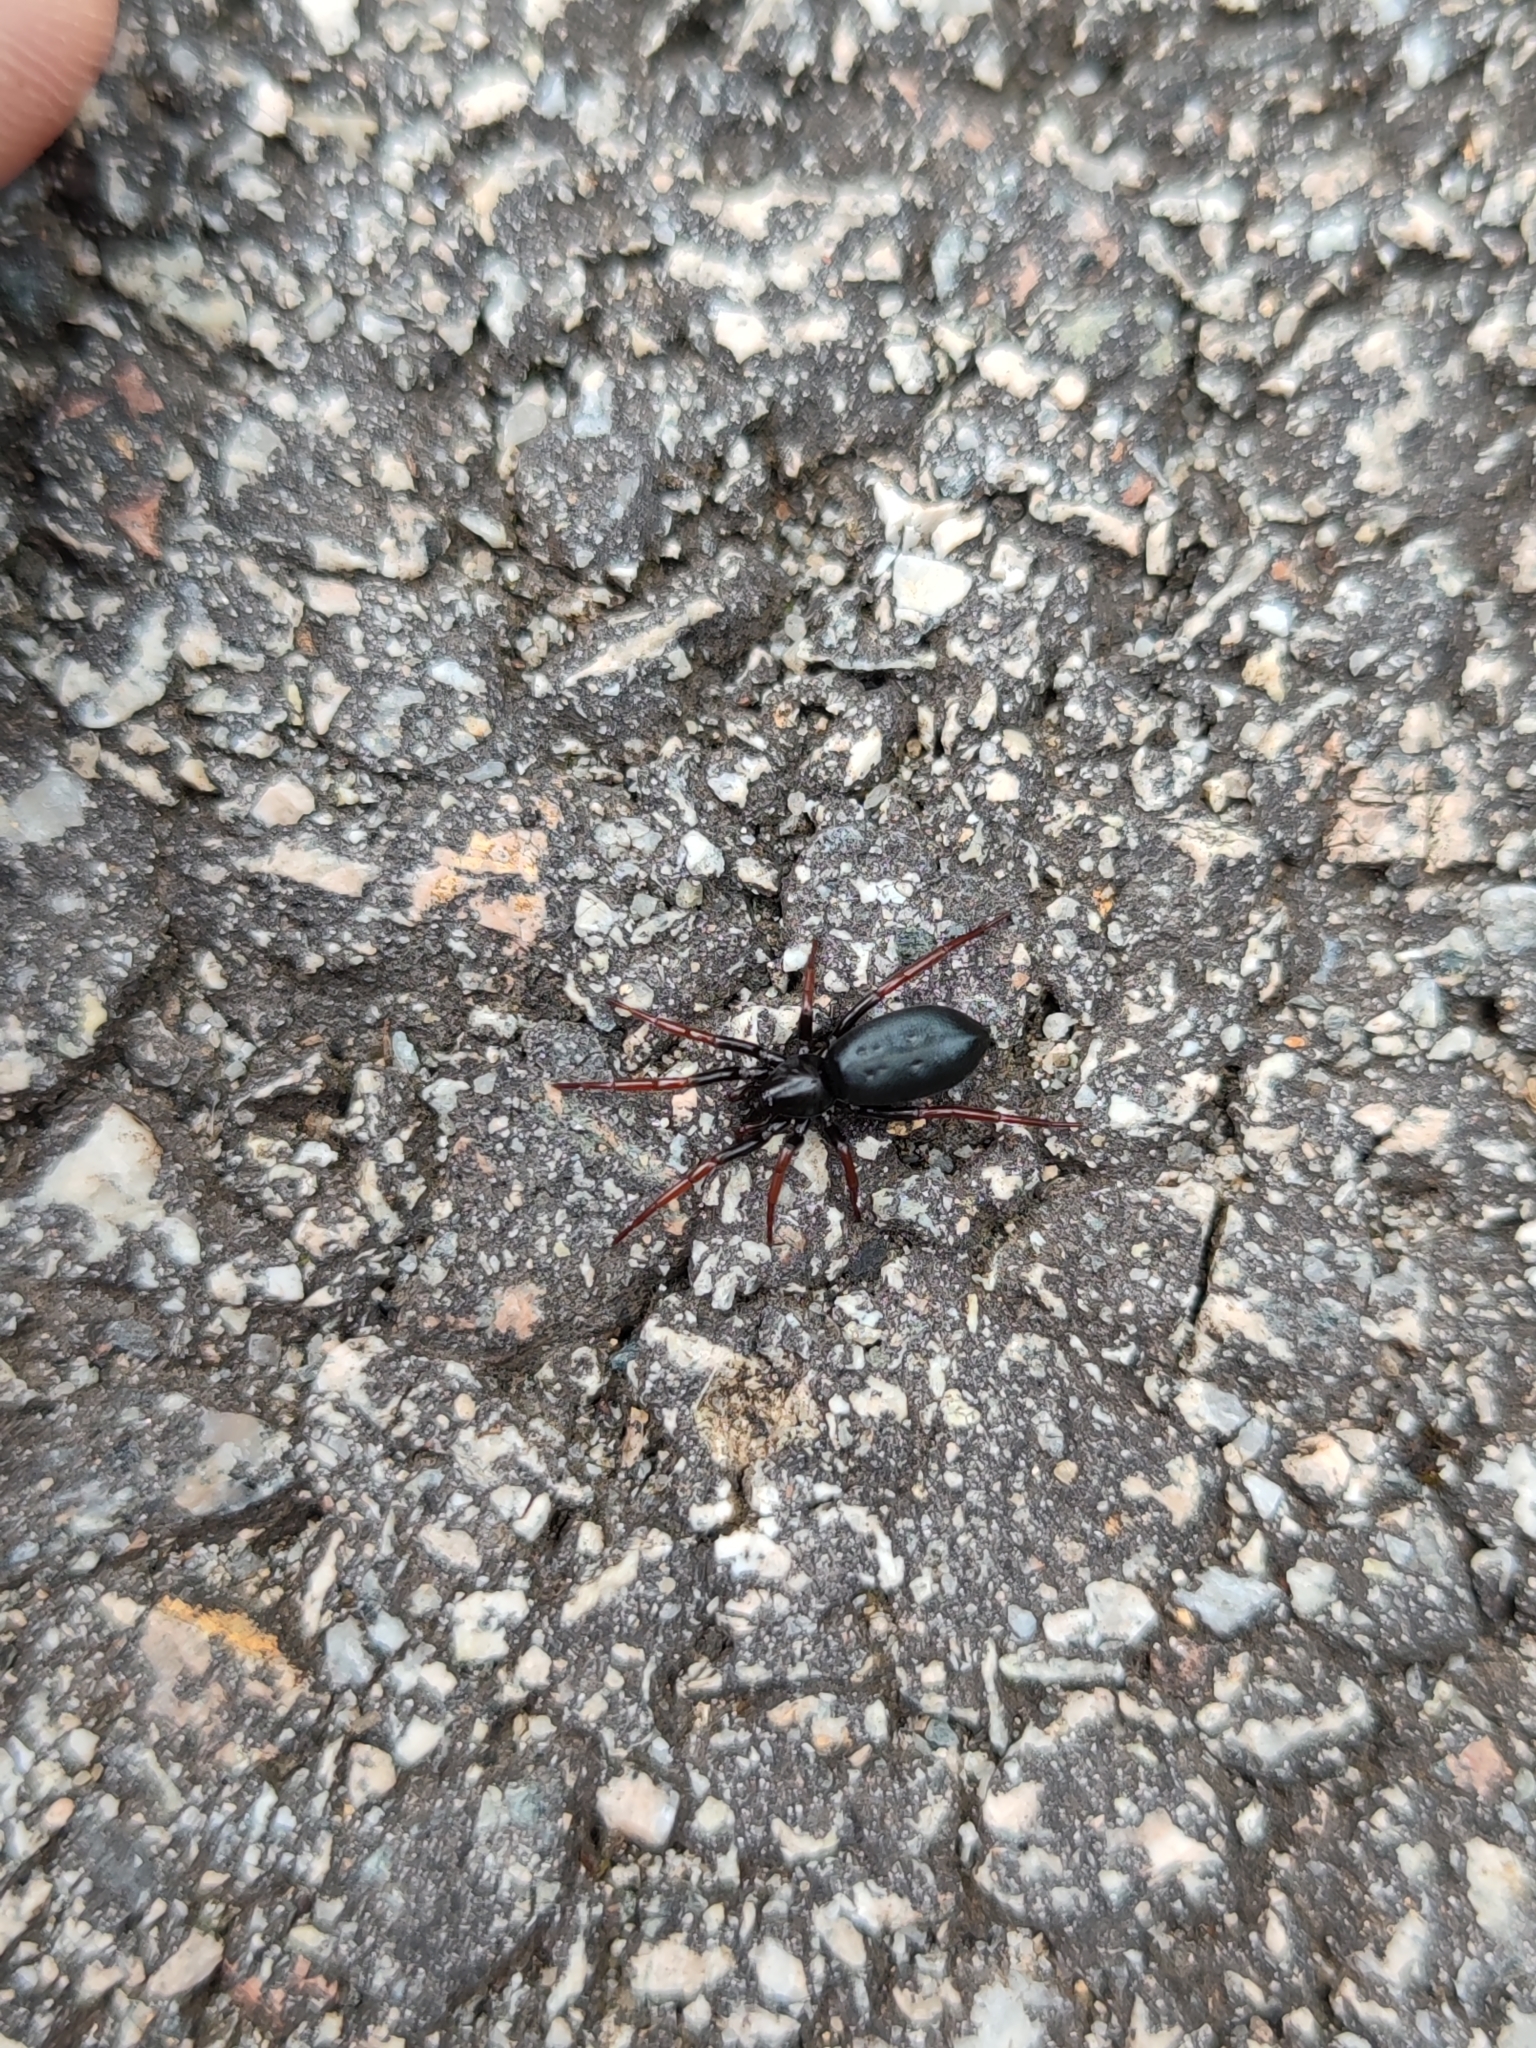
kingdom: Animalia
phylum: Arthropoda
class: Arachnida
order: Araneae
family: Gnaphosidae
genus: Trachyzelotes
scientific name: Trachyzelotes pedestris
